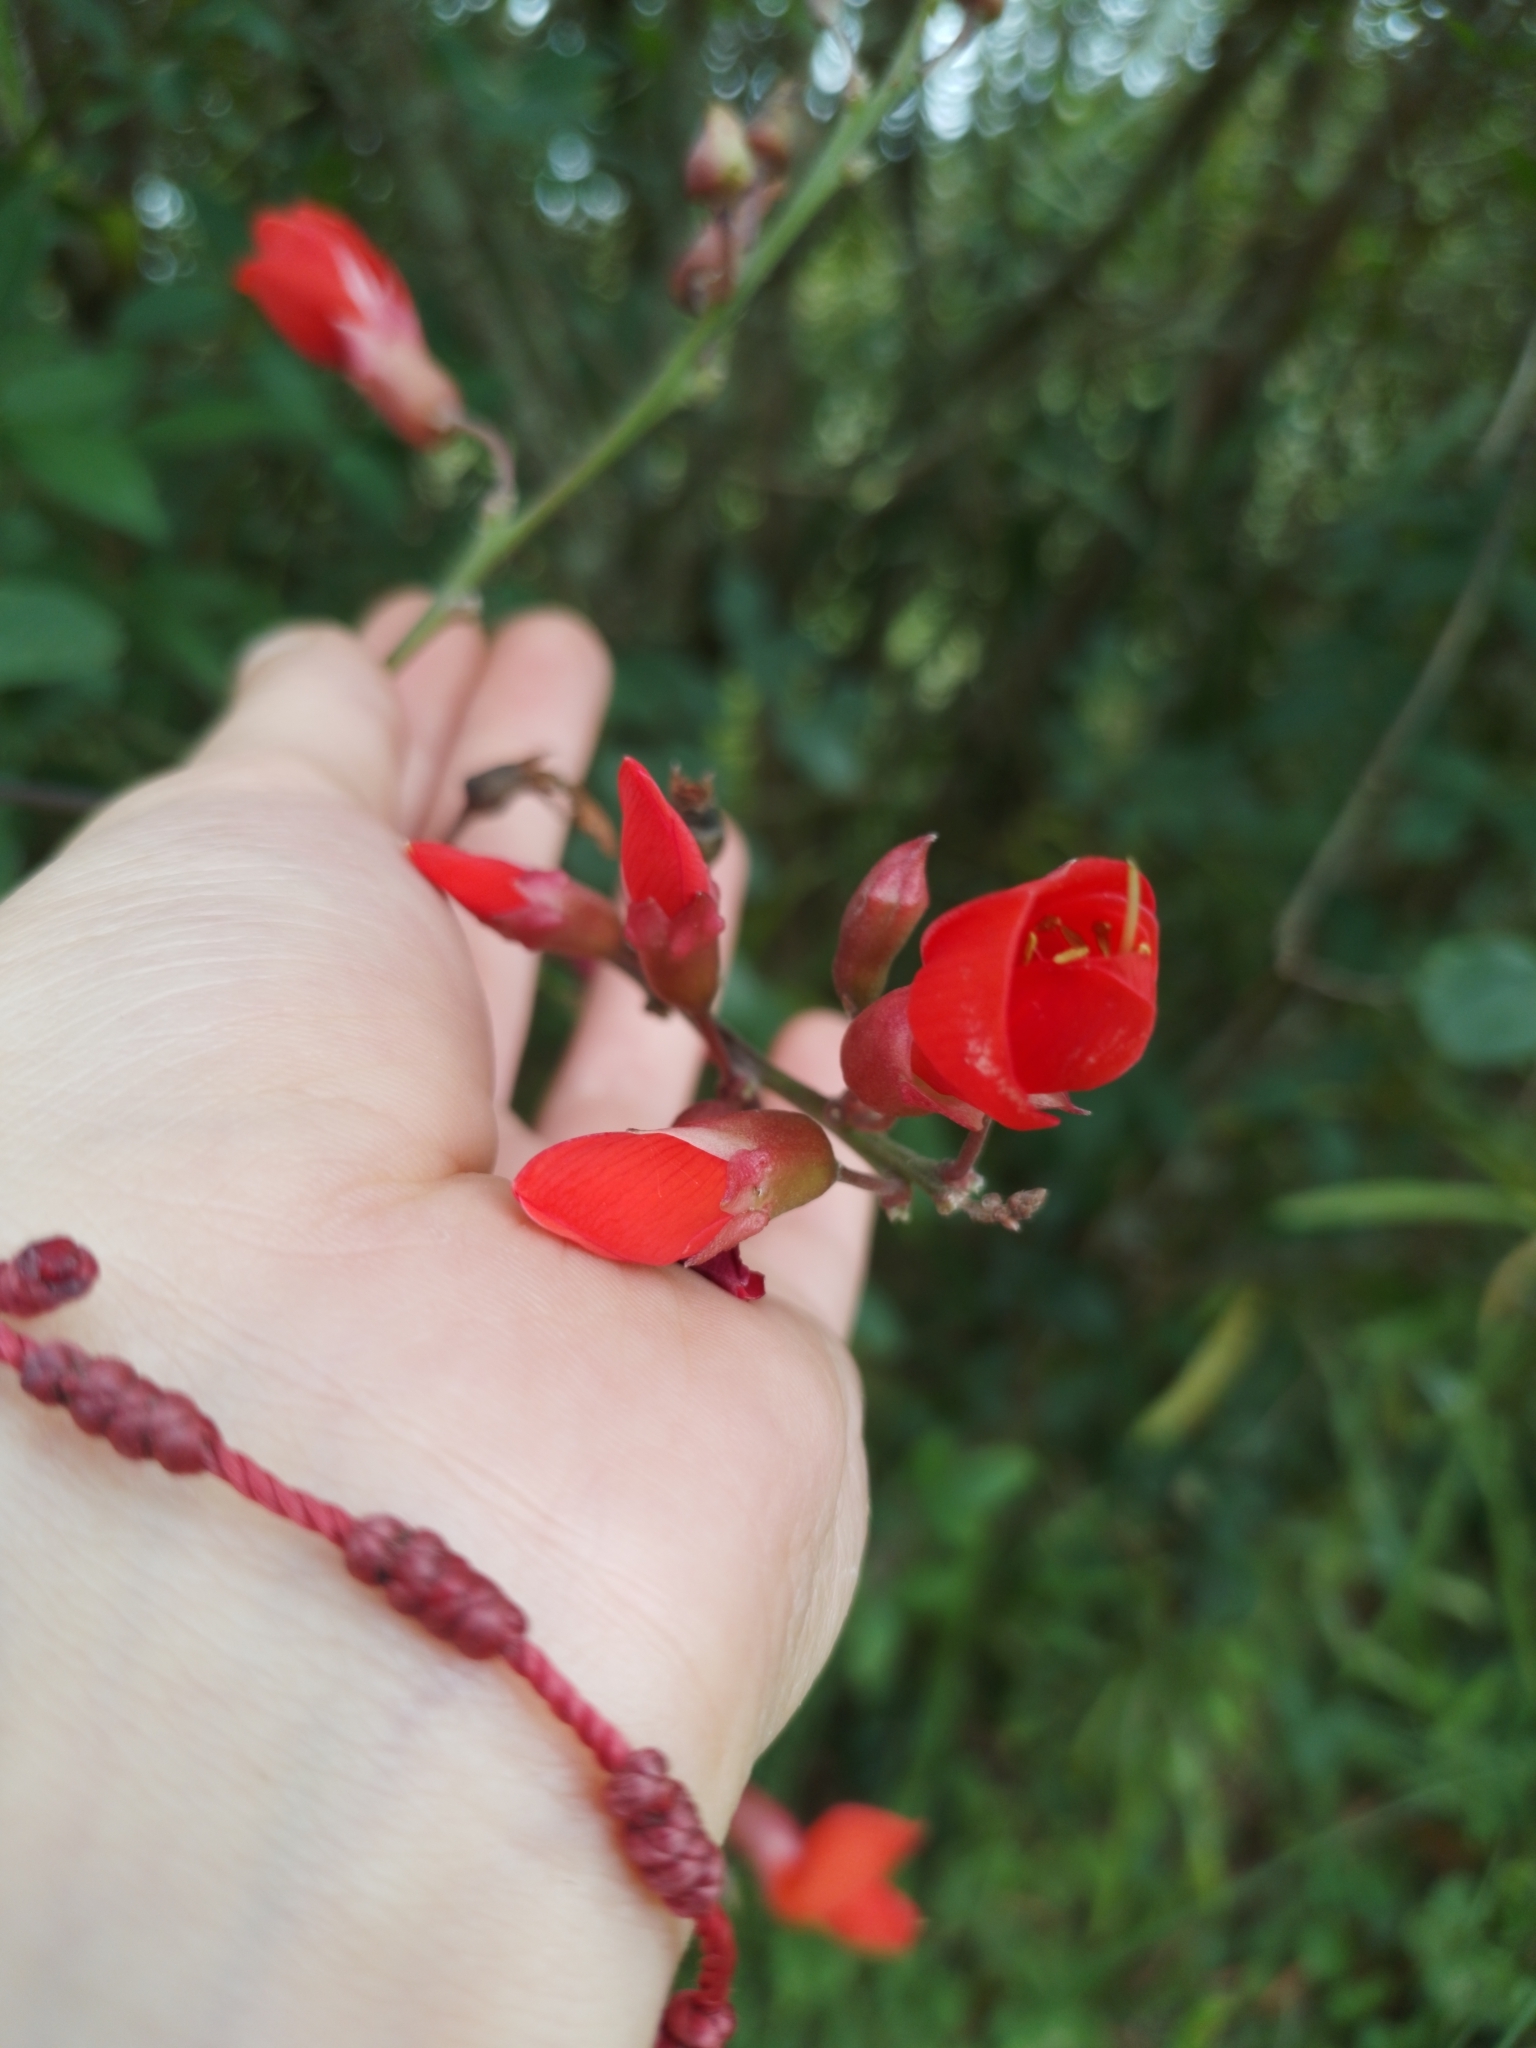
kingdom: Plantae
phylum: Tracheophyta
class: Magnoliopsida
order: Fabales
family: Fabaceae
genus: Camptosema
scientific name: Camptosema rubicundum
